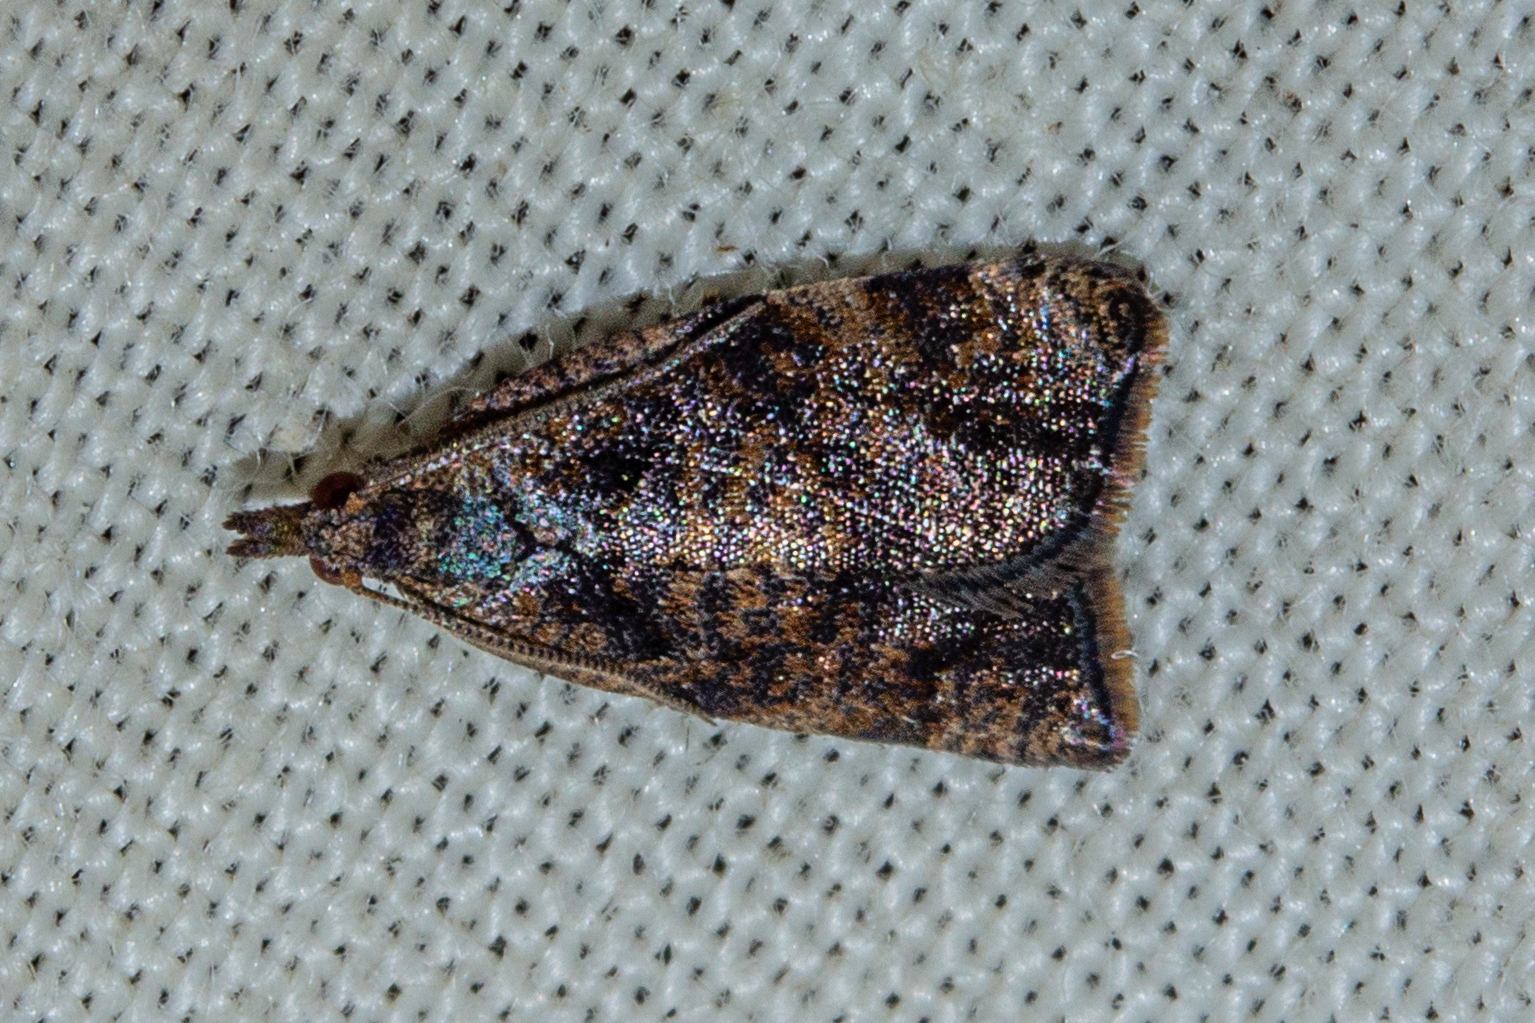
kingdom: Animalia
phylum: Arthropoda
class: Insecta
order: Lepidoptera
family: Tortricidae
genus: Catamacta
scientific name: Catamacta gavisana
